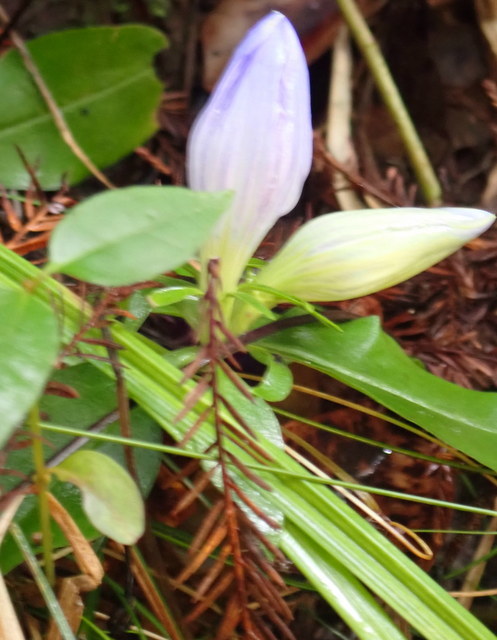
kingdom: Plantae
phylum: Tracheophyta
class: Magnoliopsida
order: Gentianales
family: Gentianaceae
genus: Gentiana
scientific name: Gentiana saponaria
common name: Soapwort gentian
